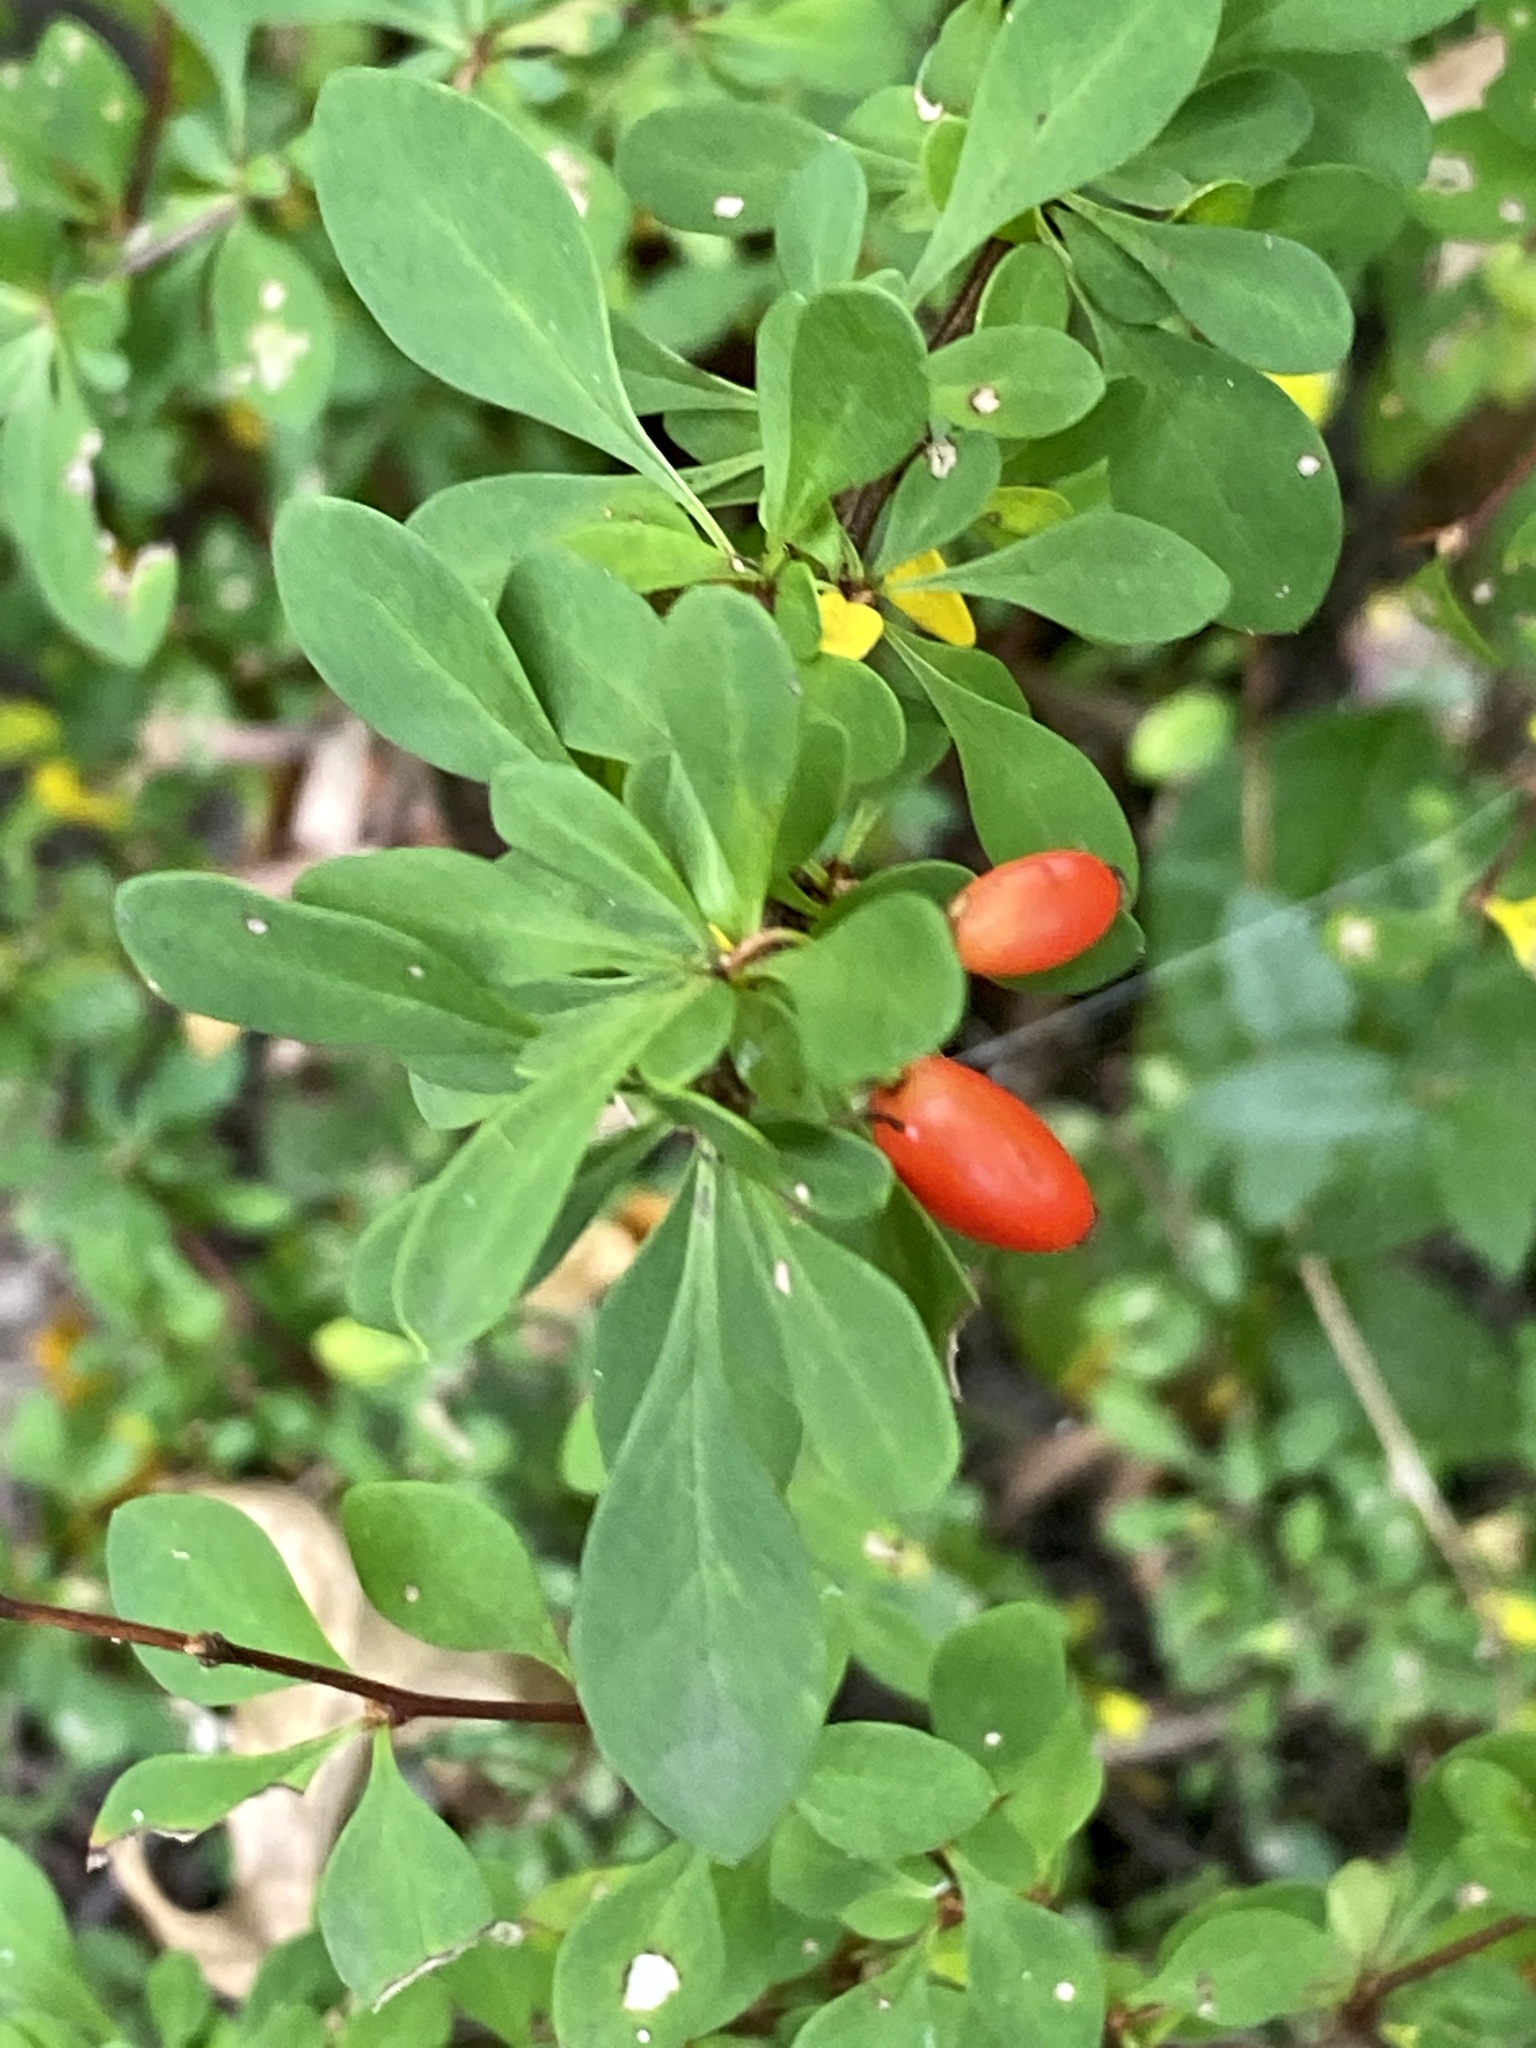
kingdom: Plantae
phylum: Tracheophyta
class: Magnoliopsida
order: Ranunculales
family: Berberidaceae
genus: Berberis
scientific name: Berberis thunbergii
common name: Japanese barberry
